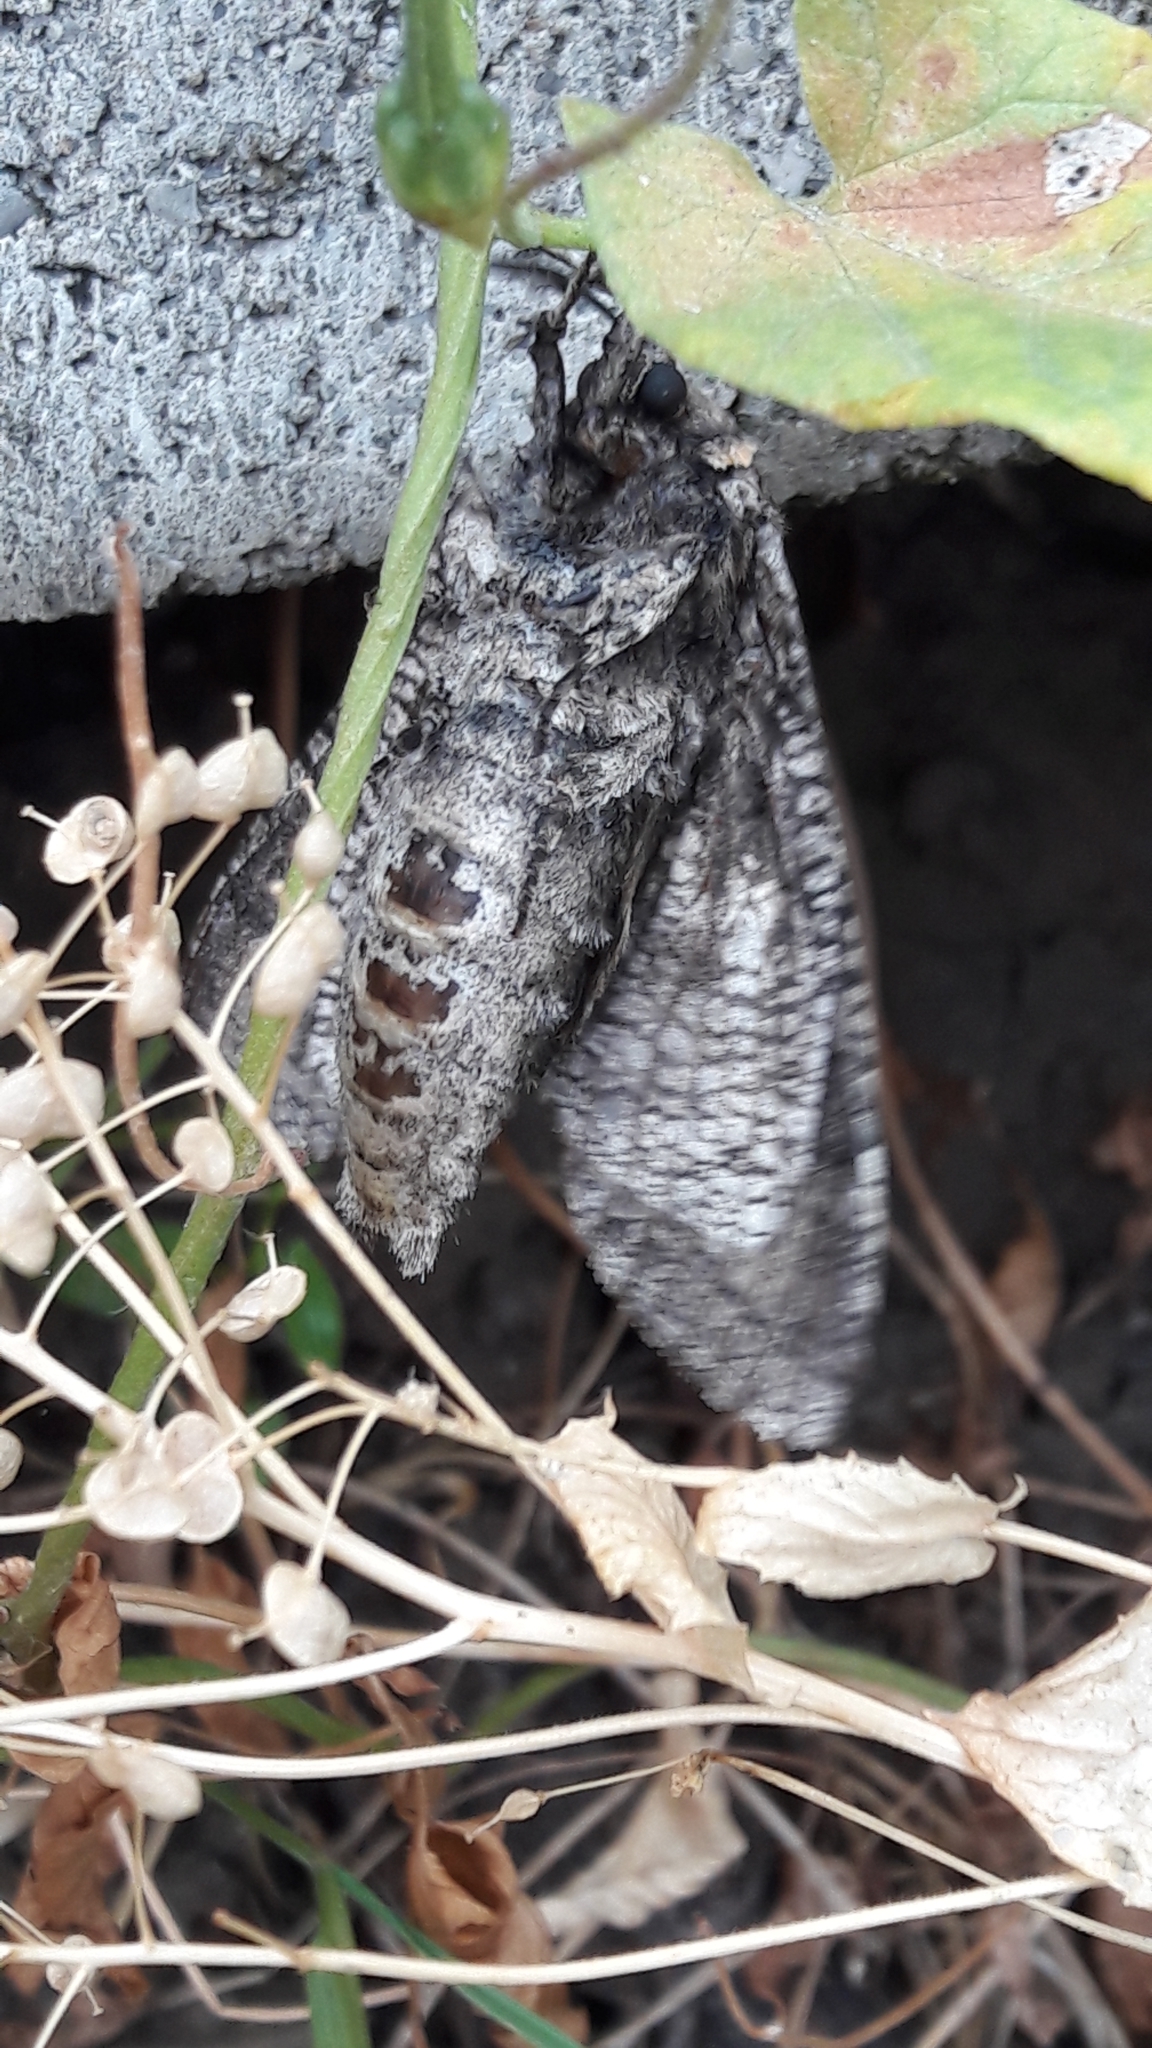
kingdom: Animalia
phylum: Arthropoda
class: Insecta
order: Lepidoptera
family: Cossidae
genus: Cossus
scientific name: Cossus cossus
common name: Goat moth
